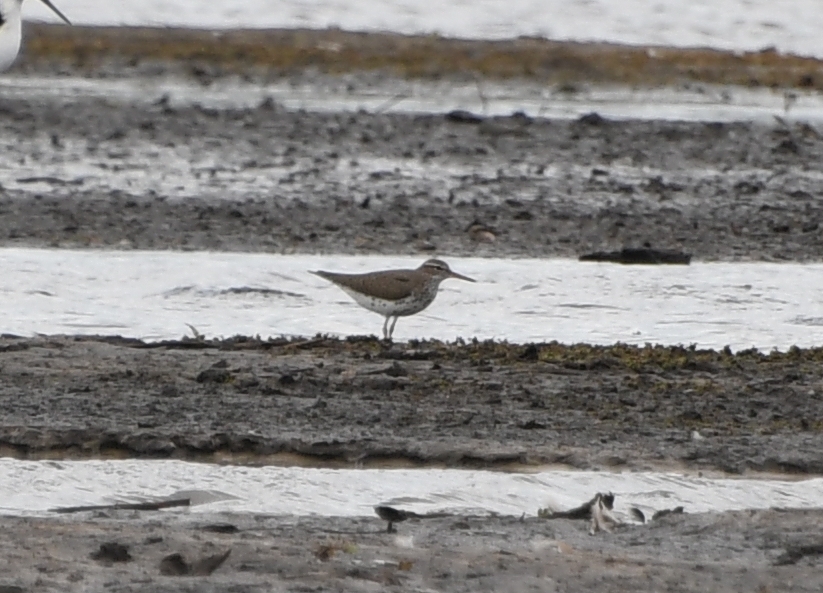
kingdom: Animalia
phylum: Chordata
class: Aves
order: Charadriiformes
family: Scolopacidae
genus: Actitis
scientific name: Actitis macularius
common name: Spotted sandpiper
